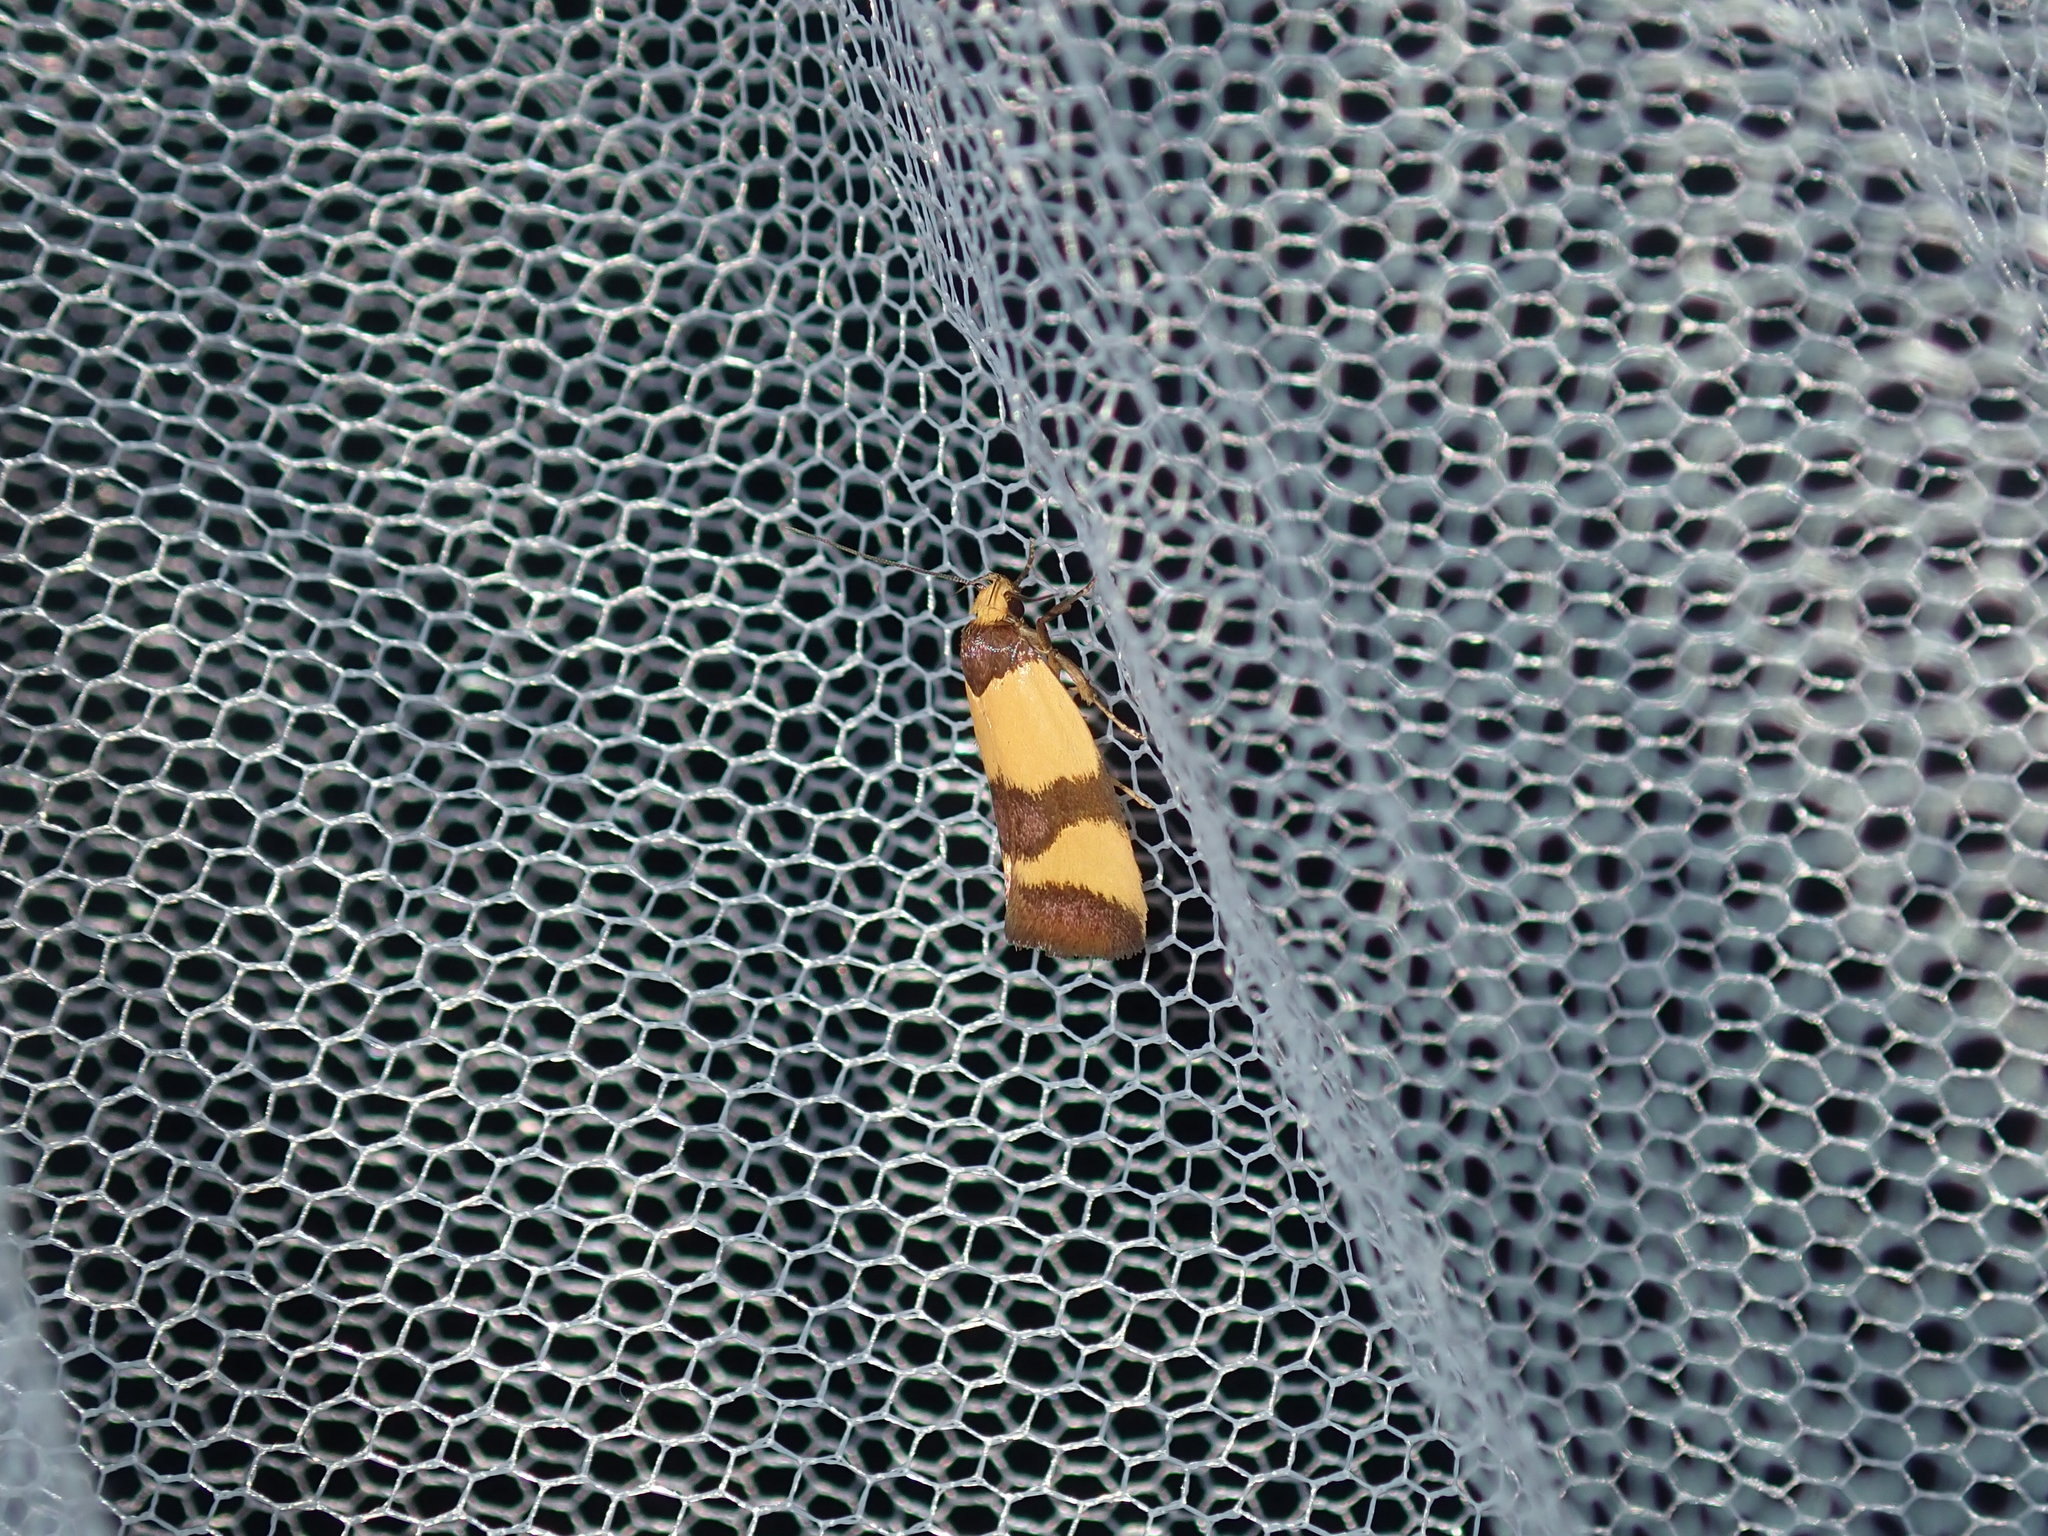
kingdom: Animalia
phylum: Arthropoda
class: Insecta
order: Lepidoptera
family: Oecophoridae
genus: Chrysonoma
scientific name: Chrysonoma fascialis
